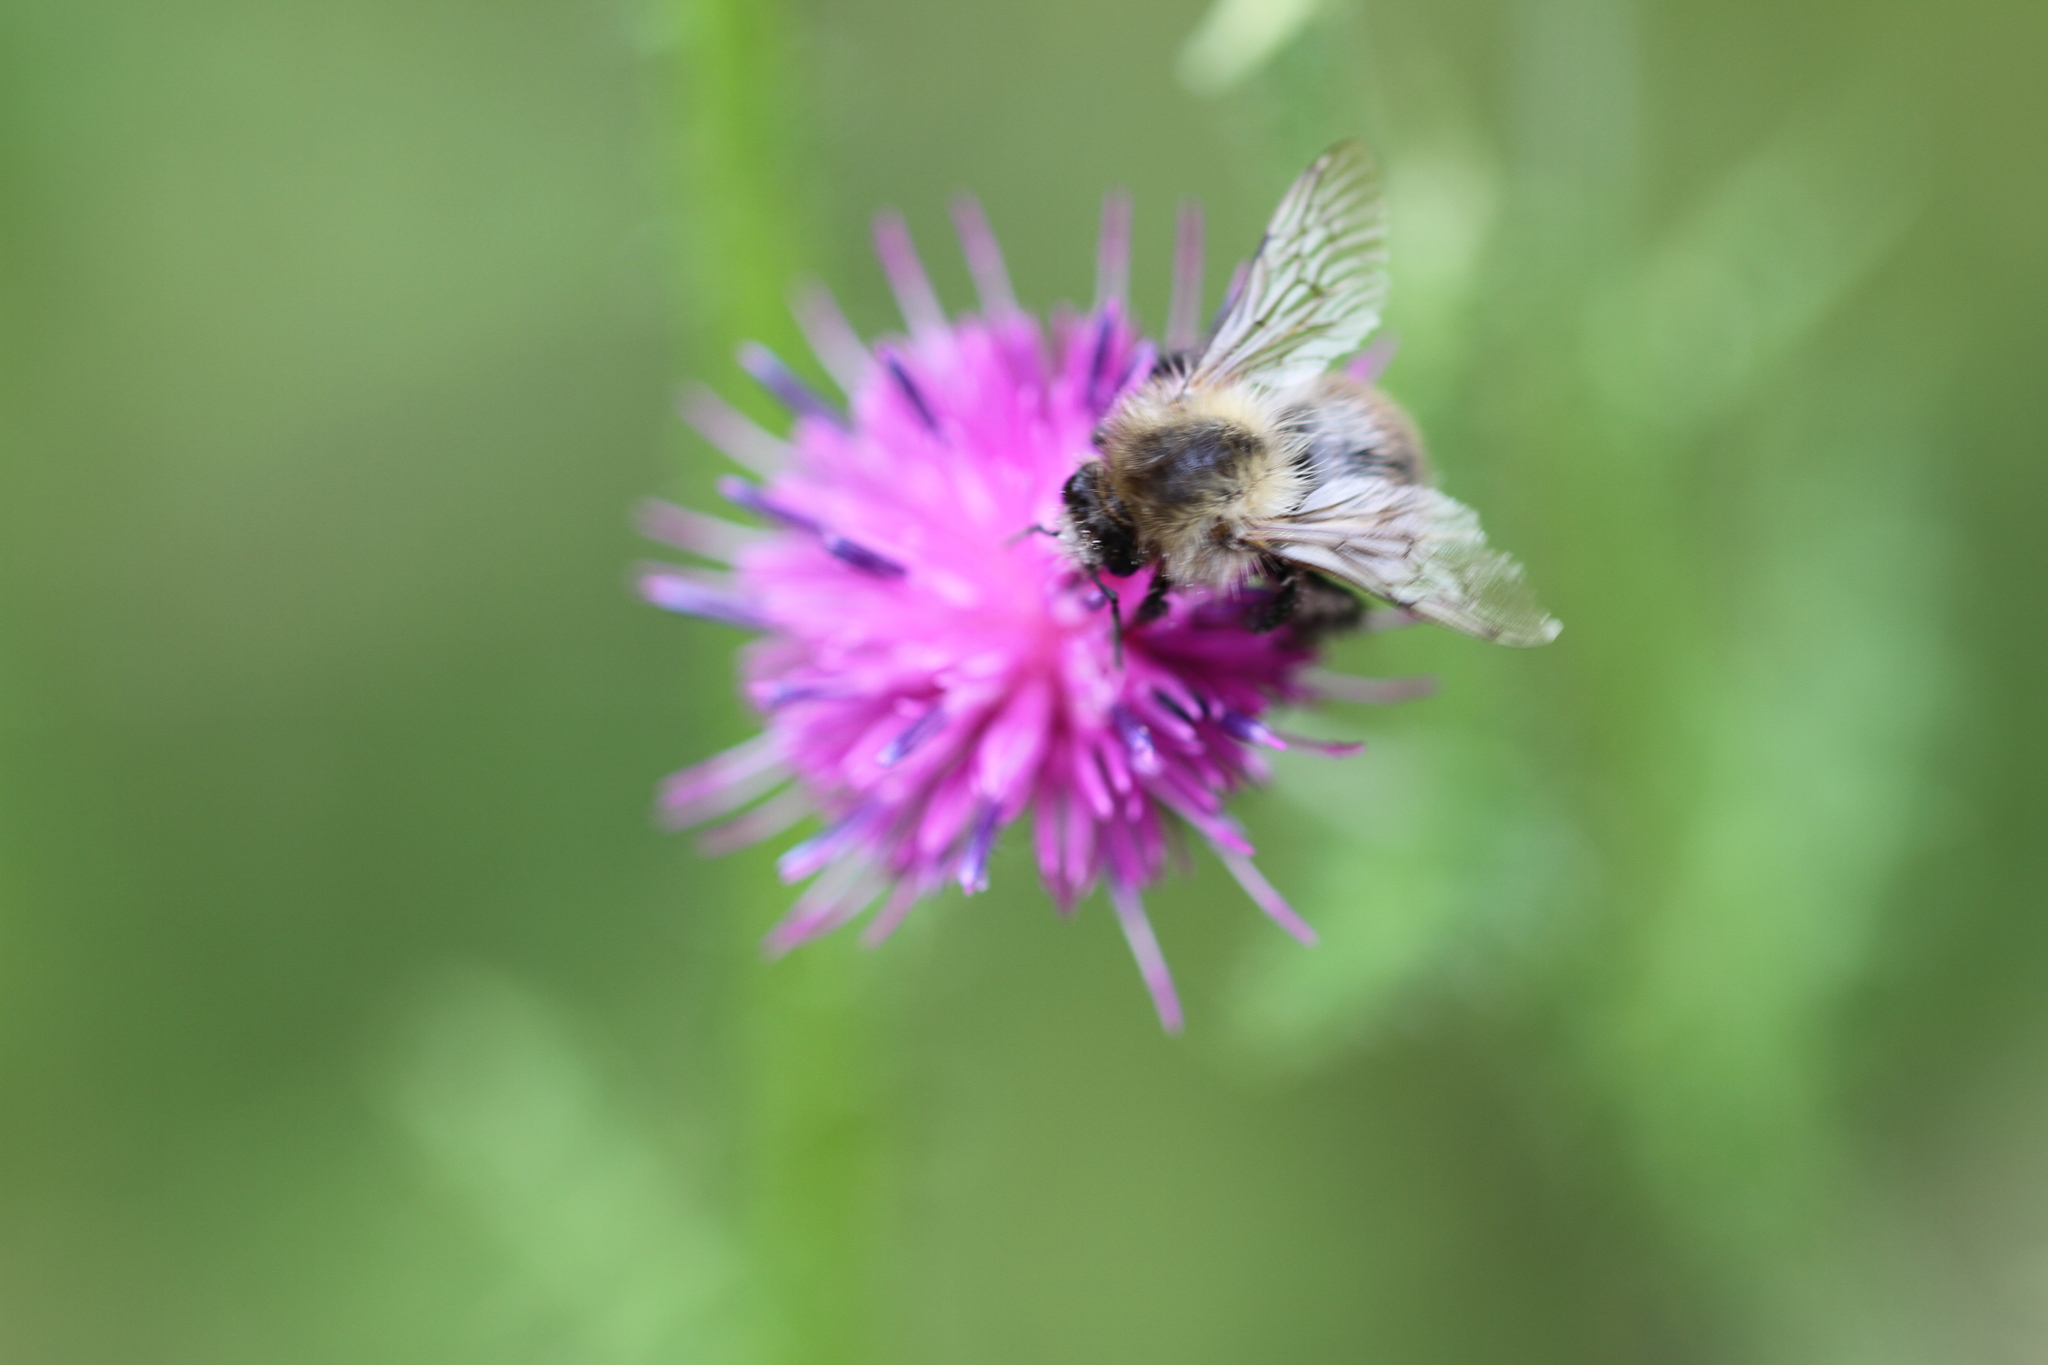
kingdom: Animalia
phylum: Arthropoda
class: Insecta
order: Hymenoptera
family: Apidae
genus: Bombus
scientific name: Bombus pascuorum
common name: Common carder bee
